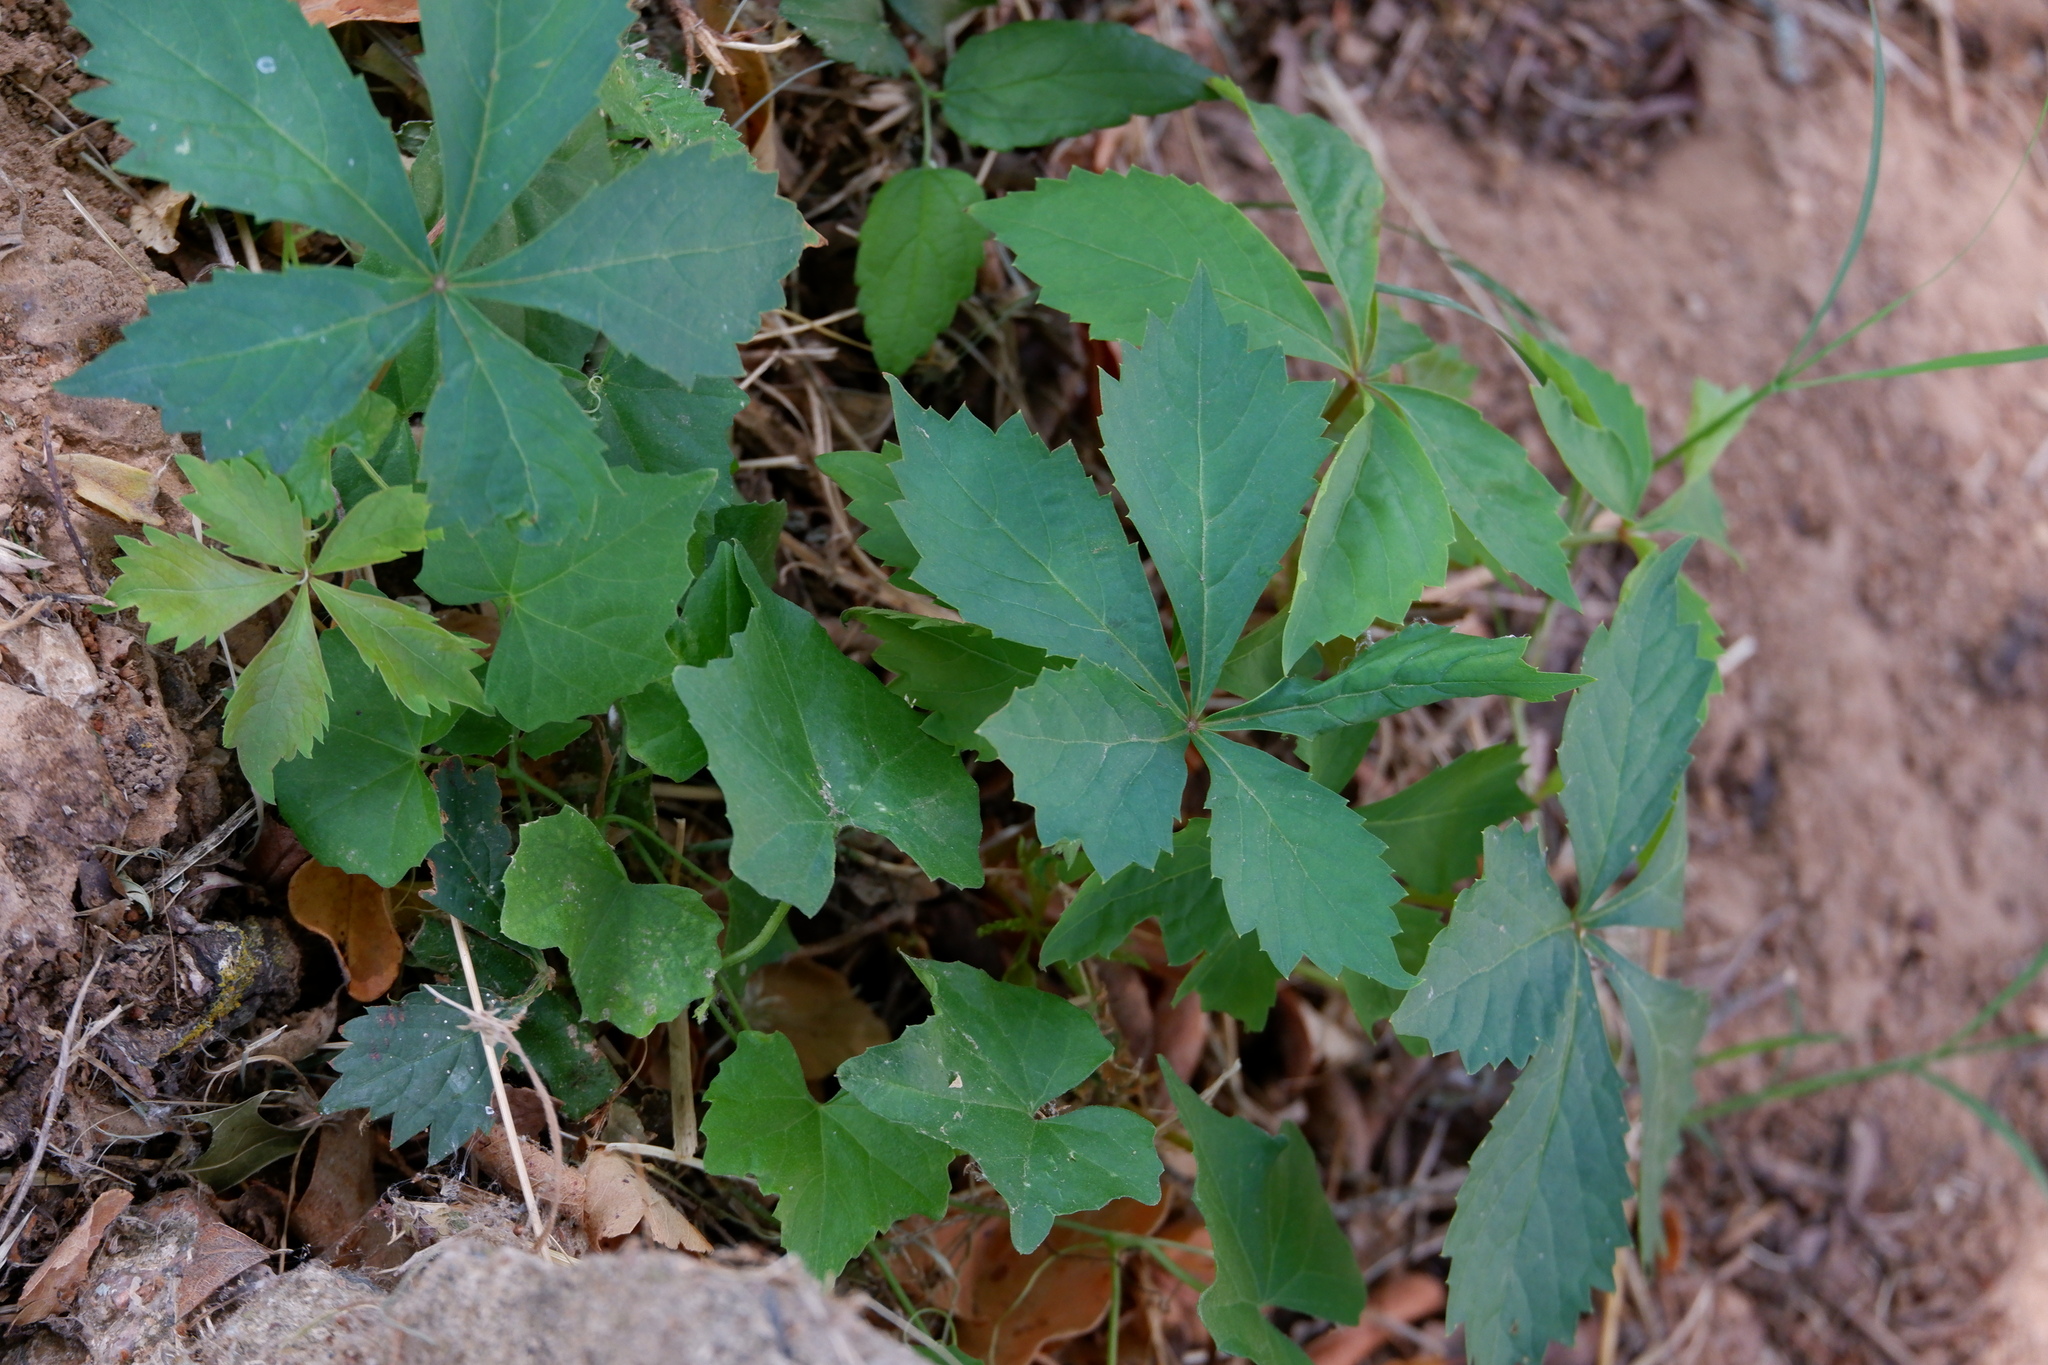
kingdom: Plantae
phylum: Tracheophyta
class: Magnoliopsida
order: Vitales
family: Vitaceae
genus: Parthenocissus
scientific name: Parthenocissus quinquefolia
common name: Virginia-creeper
